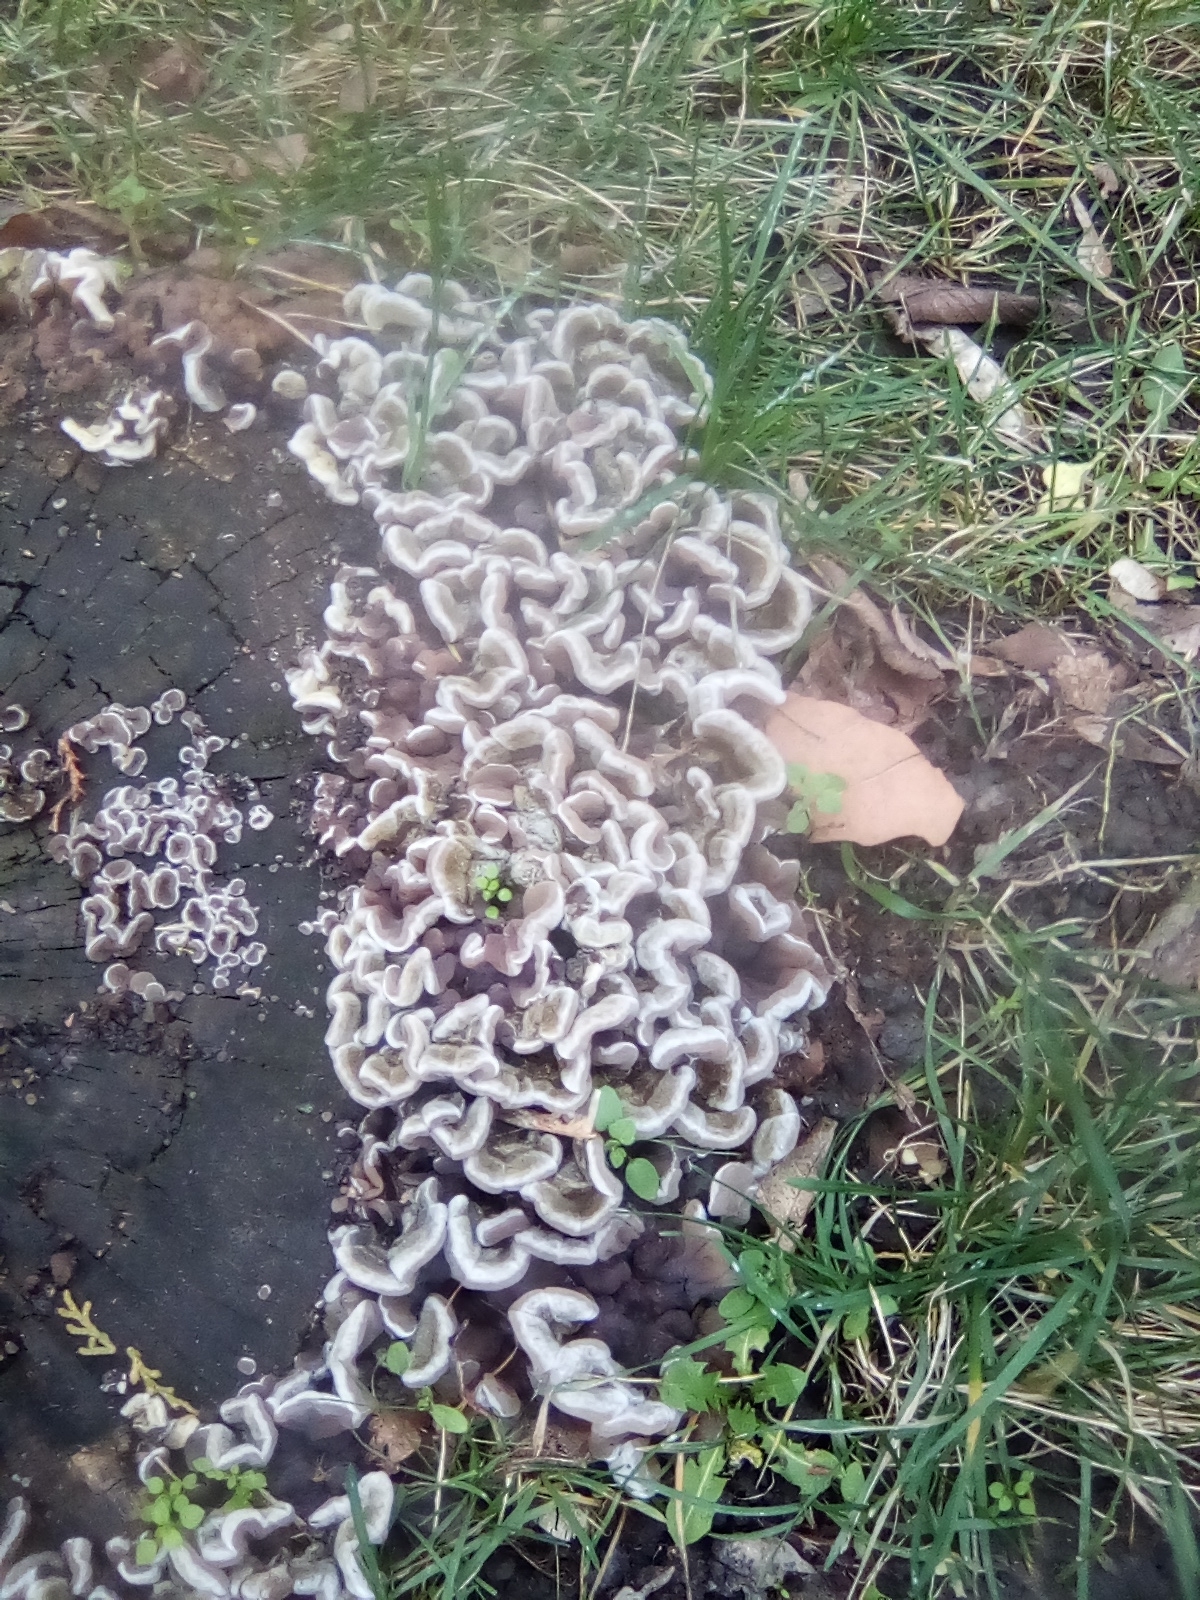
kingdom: Fungi
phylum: Basidiomycota
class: Agaricomycetes
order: Auriculariales
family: Auriculariaceae
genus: Auricularia
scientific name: Auricularia mesenterica
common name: Tripe fungus
